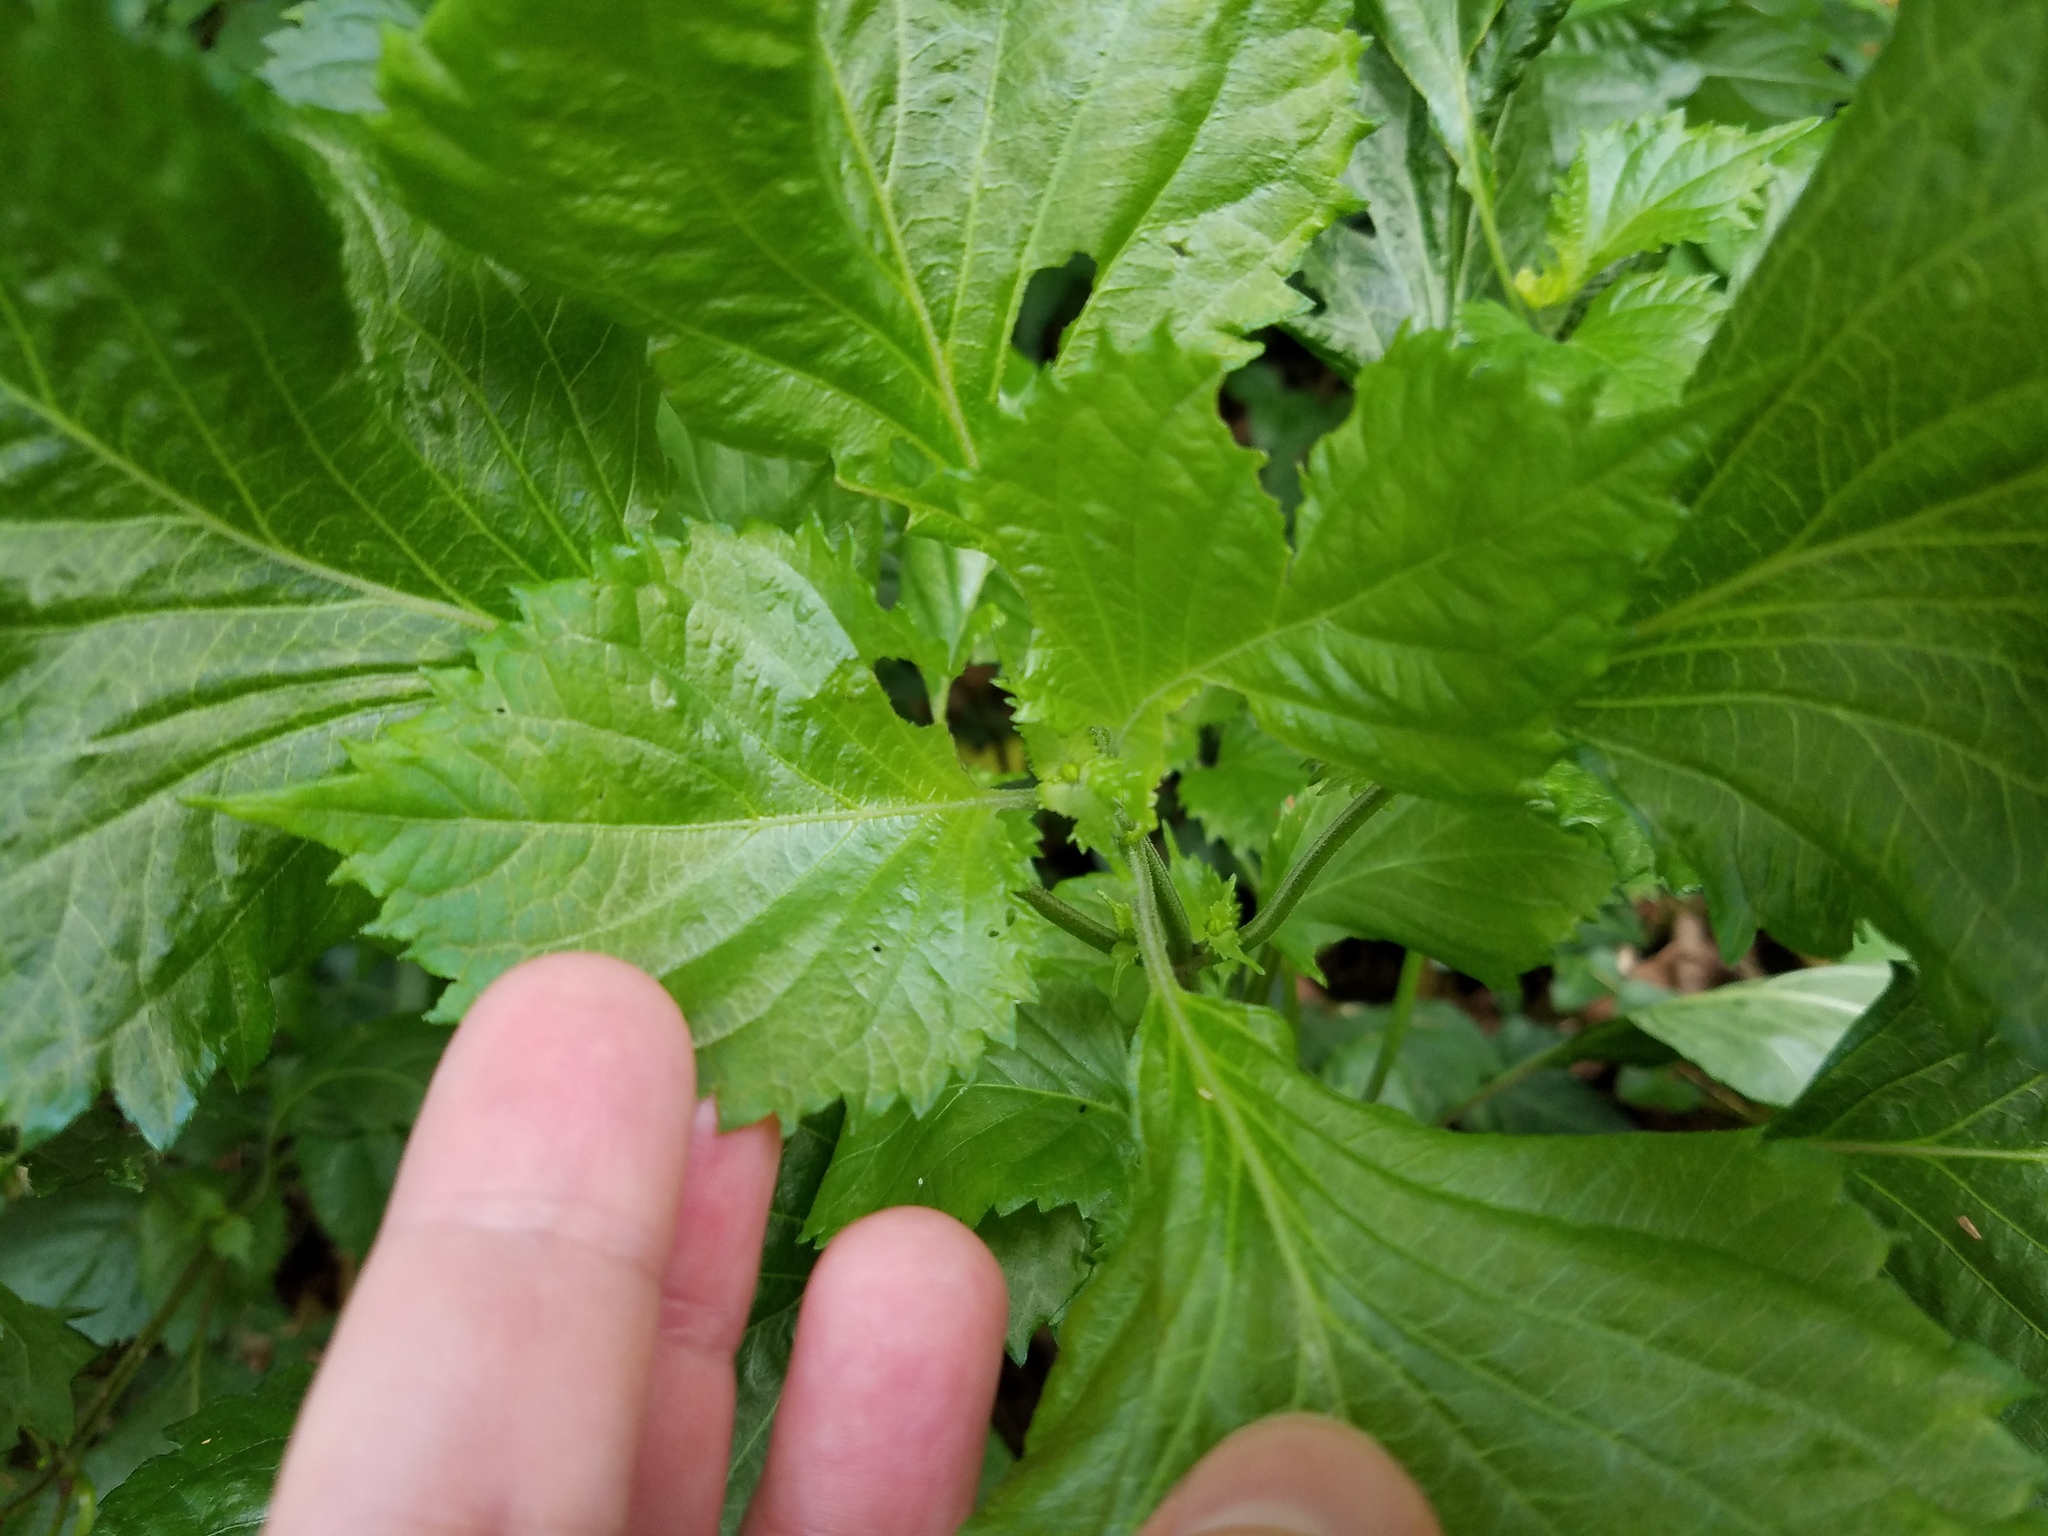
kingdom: Plantae
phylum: Tracheophyta
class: Magnoliopsida
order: Lamiales
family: Lamiaceae
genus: Perilla
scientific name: Perilla frutescens
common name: Perilla
